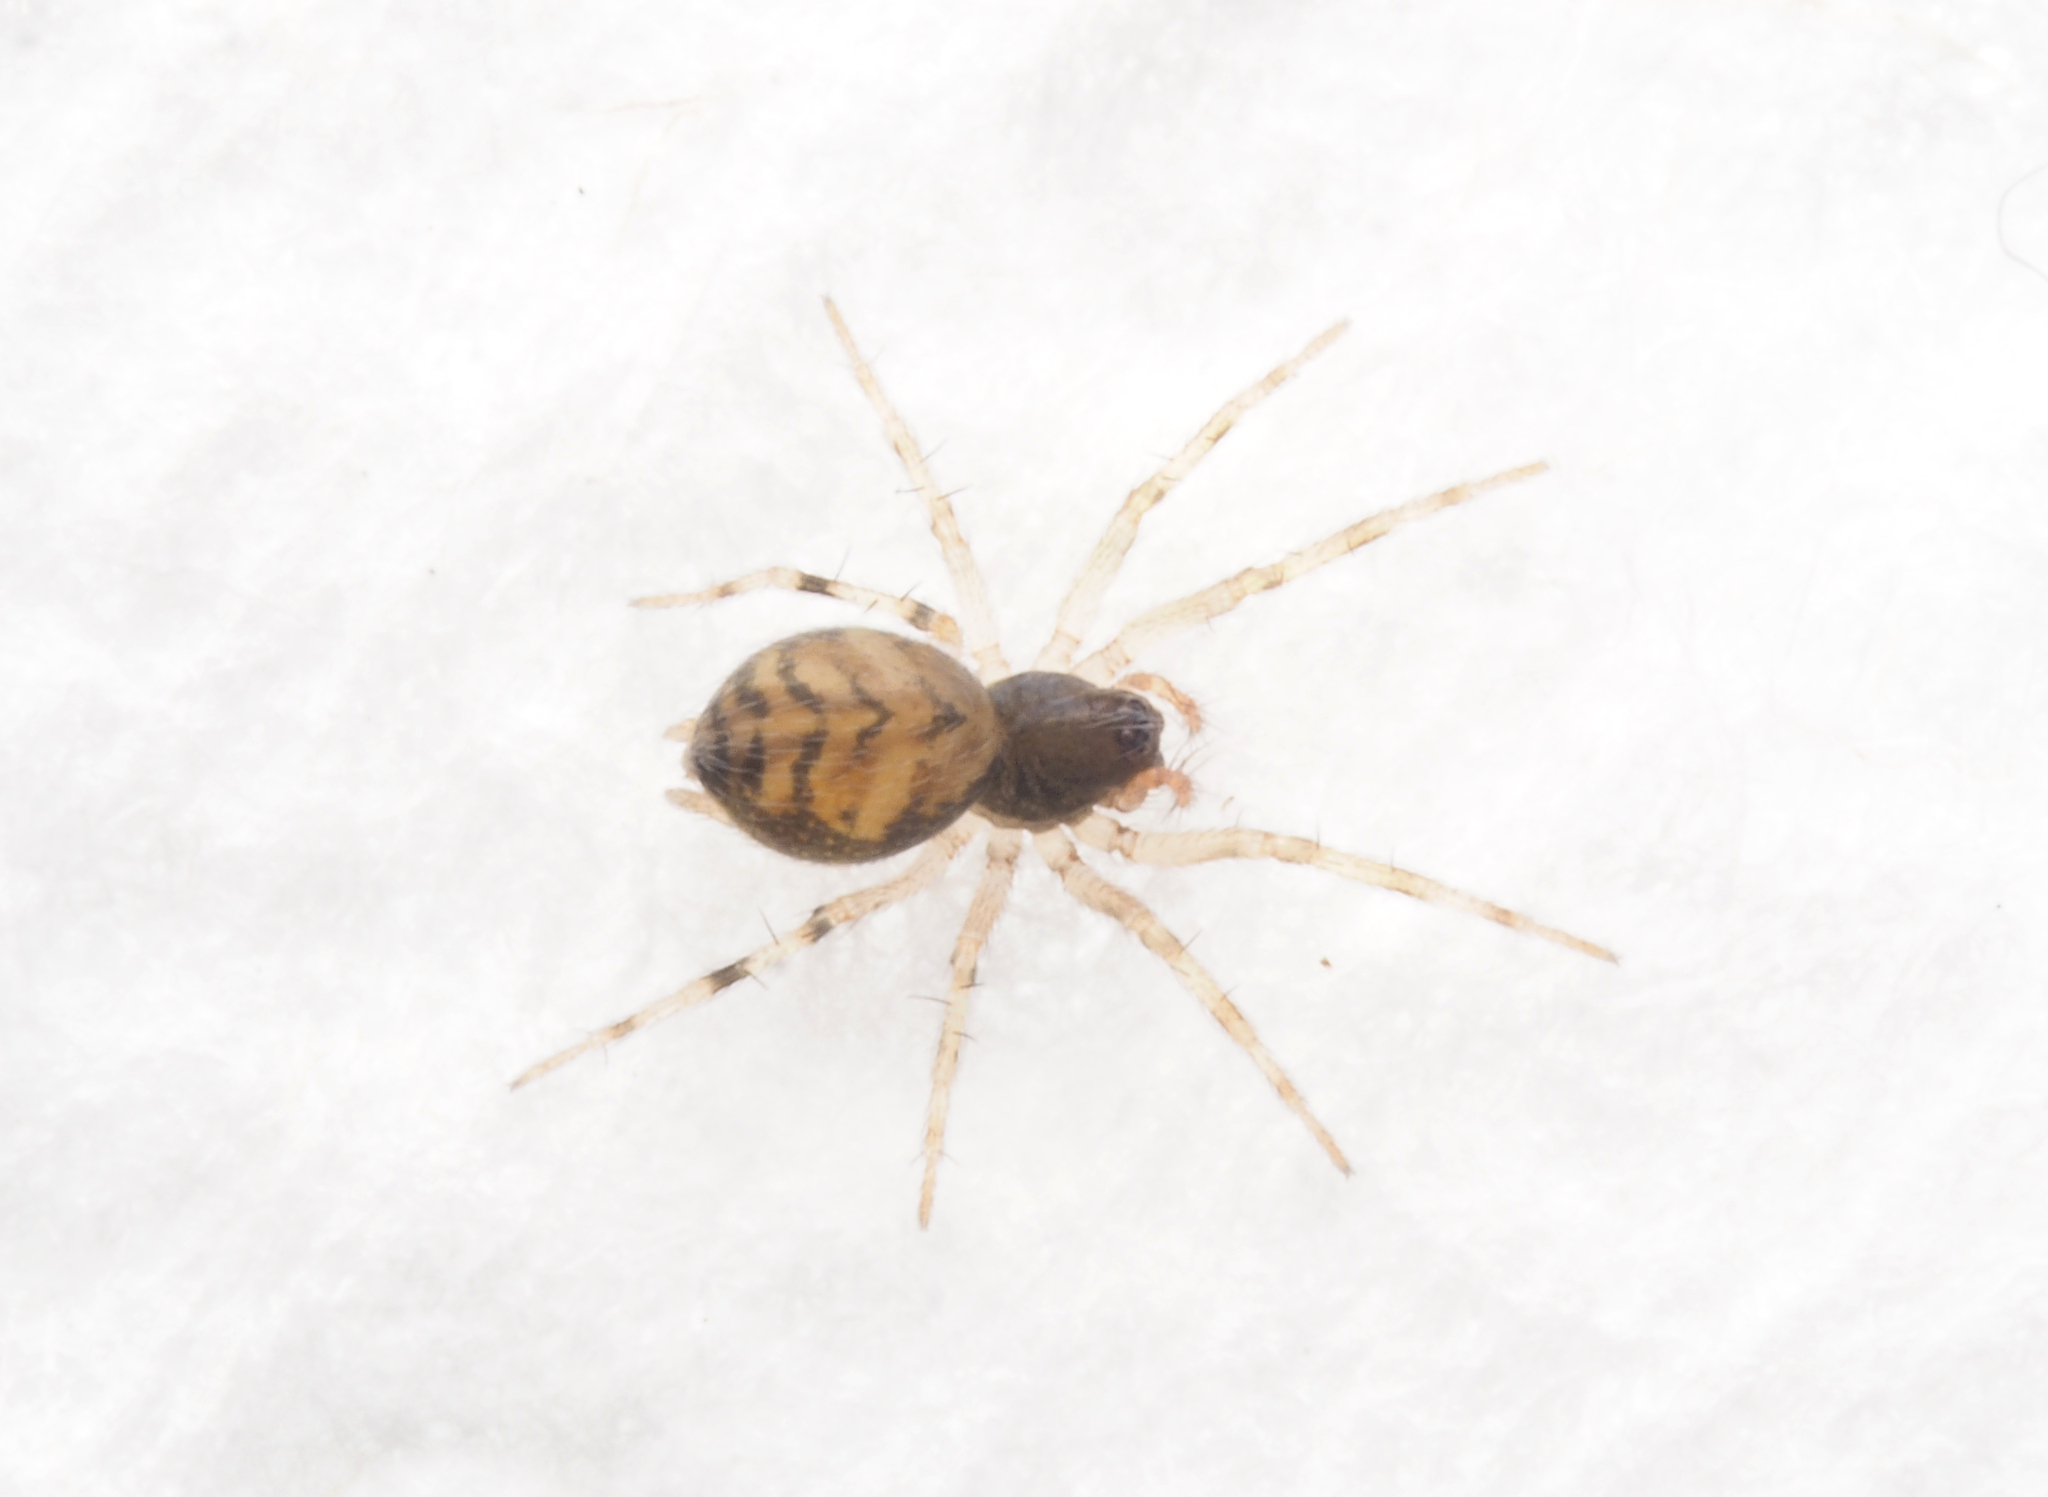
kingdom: Animalia
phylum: Arthropoda
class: Arachnida
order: Araneae
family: Hahniidae
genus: Alistra
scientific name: Alistra
